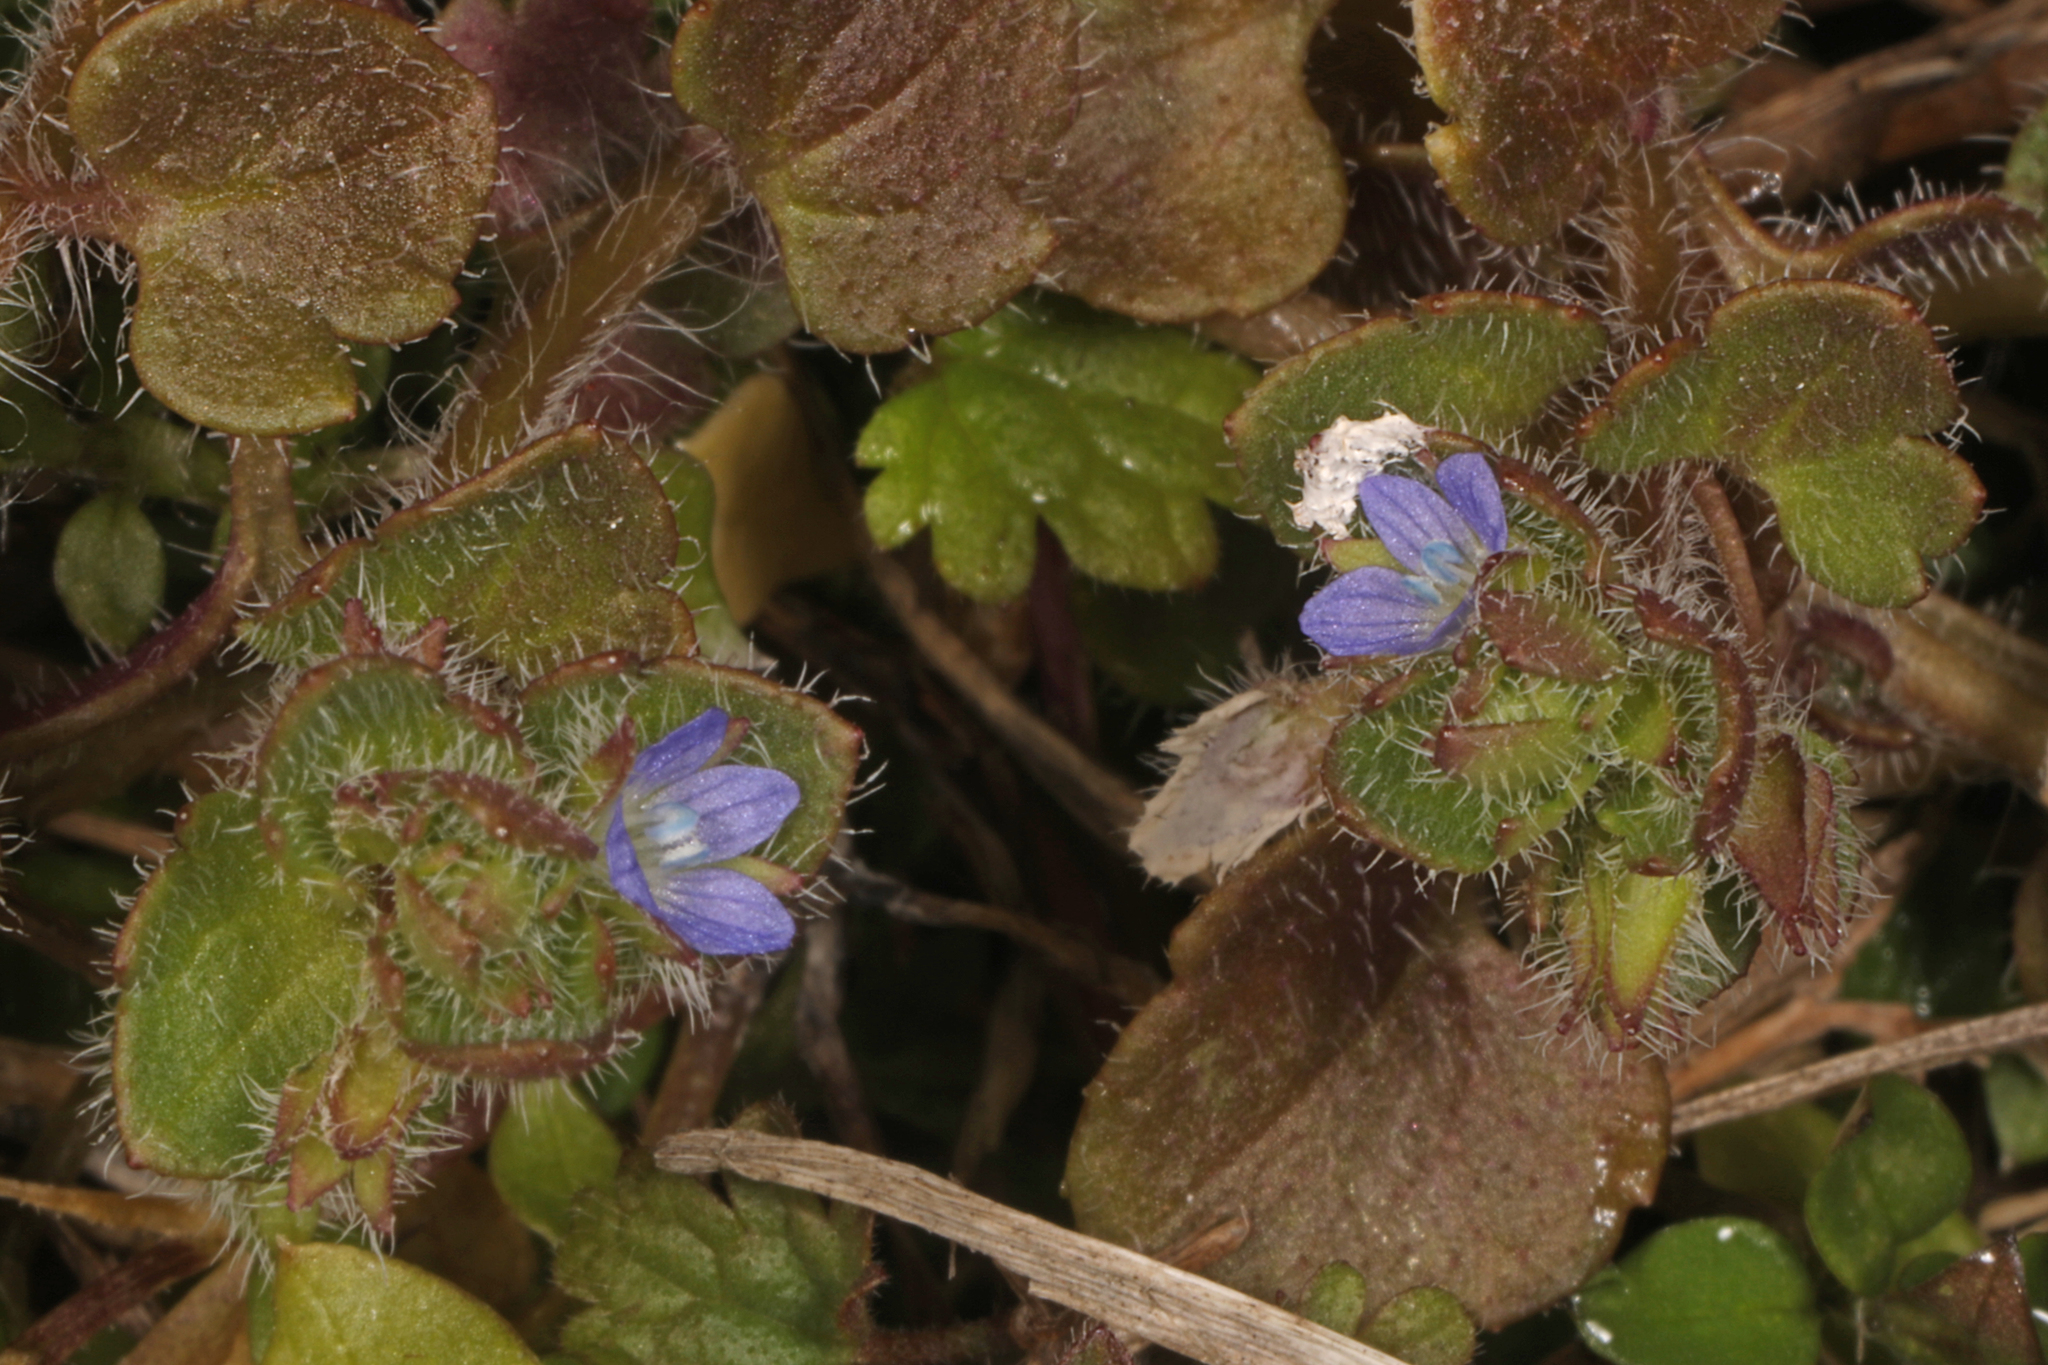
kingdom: Plantae
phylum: Tracheophyta
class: Magnoliopsida
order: Lamiales
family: Plantaginaceae
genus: Veronica
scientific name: Veronica hederifolia
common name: Ivy-leaved speedwell
